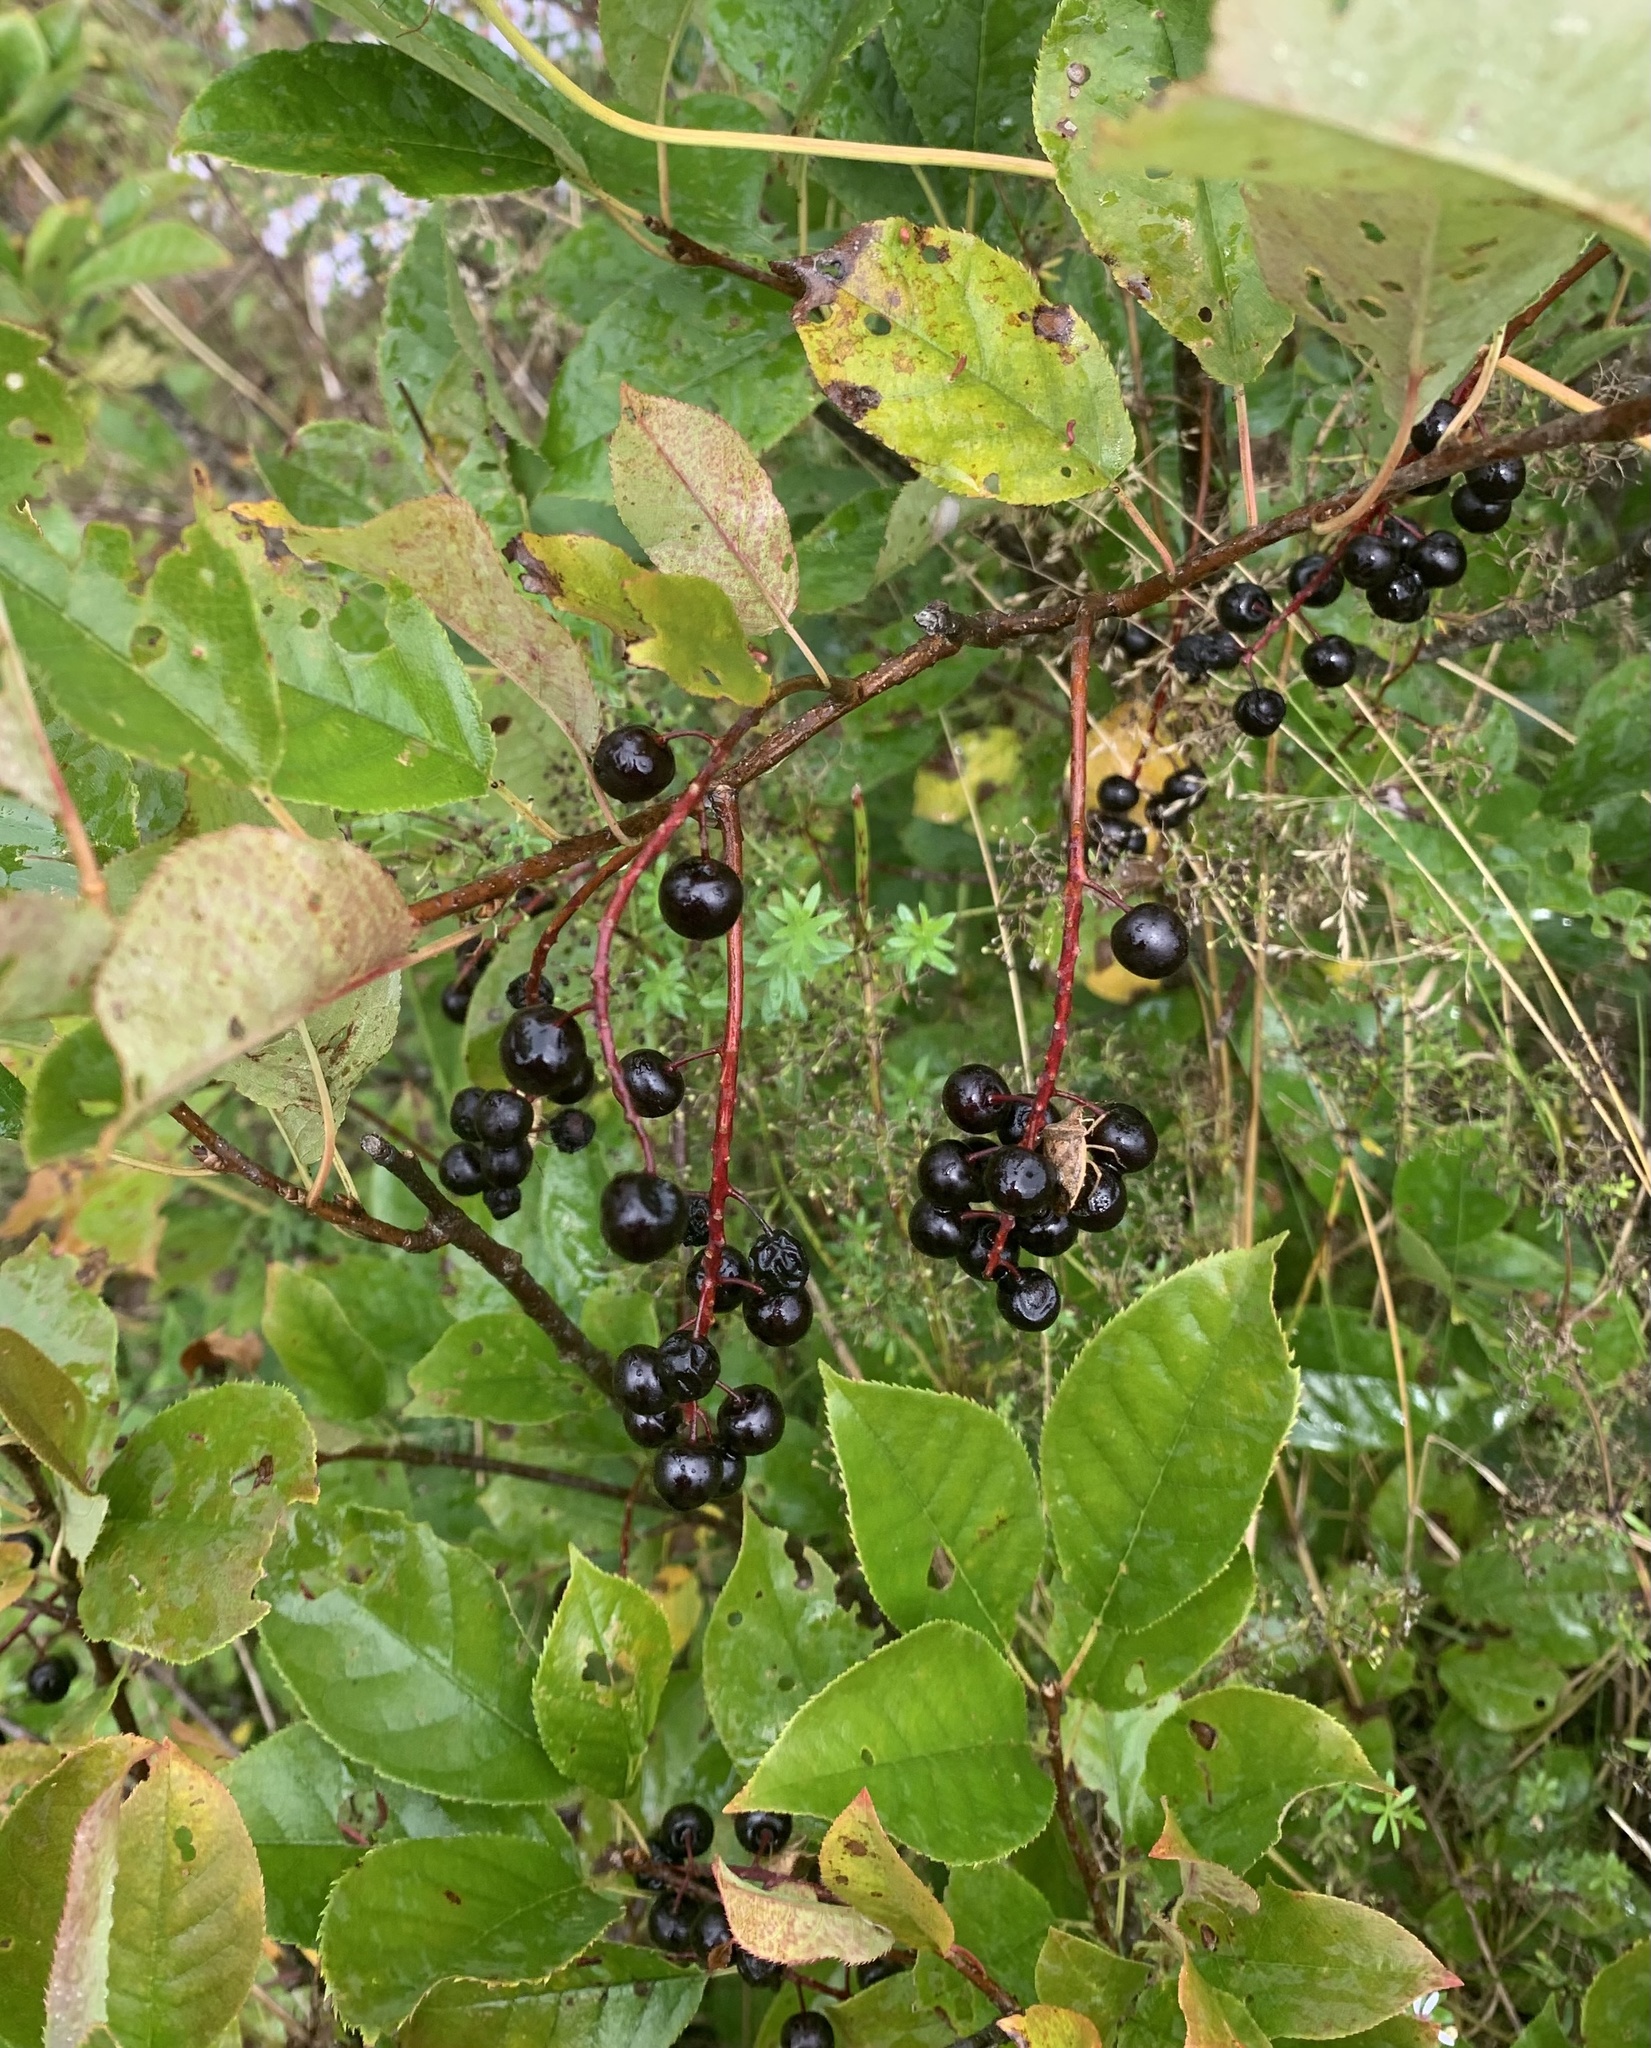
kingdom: Plantae
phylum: Tracheophyta
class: Magnoliopsida
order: Rosales
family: Rosaceae
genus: Prunus
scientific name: Prunus virginiana
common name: Chokecherry
